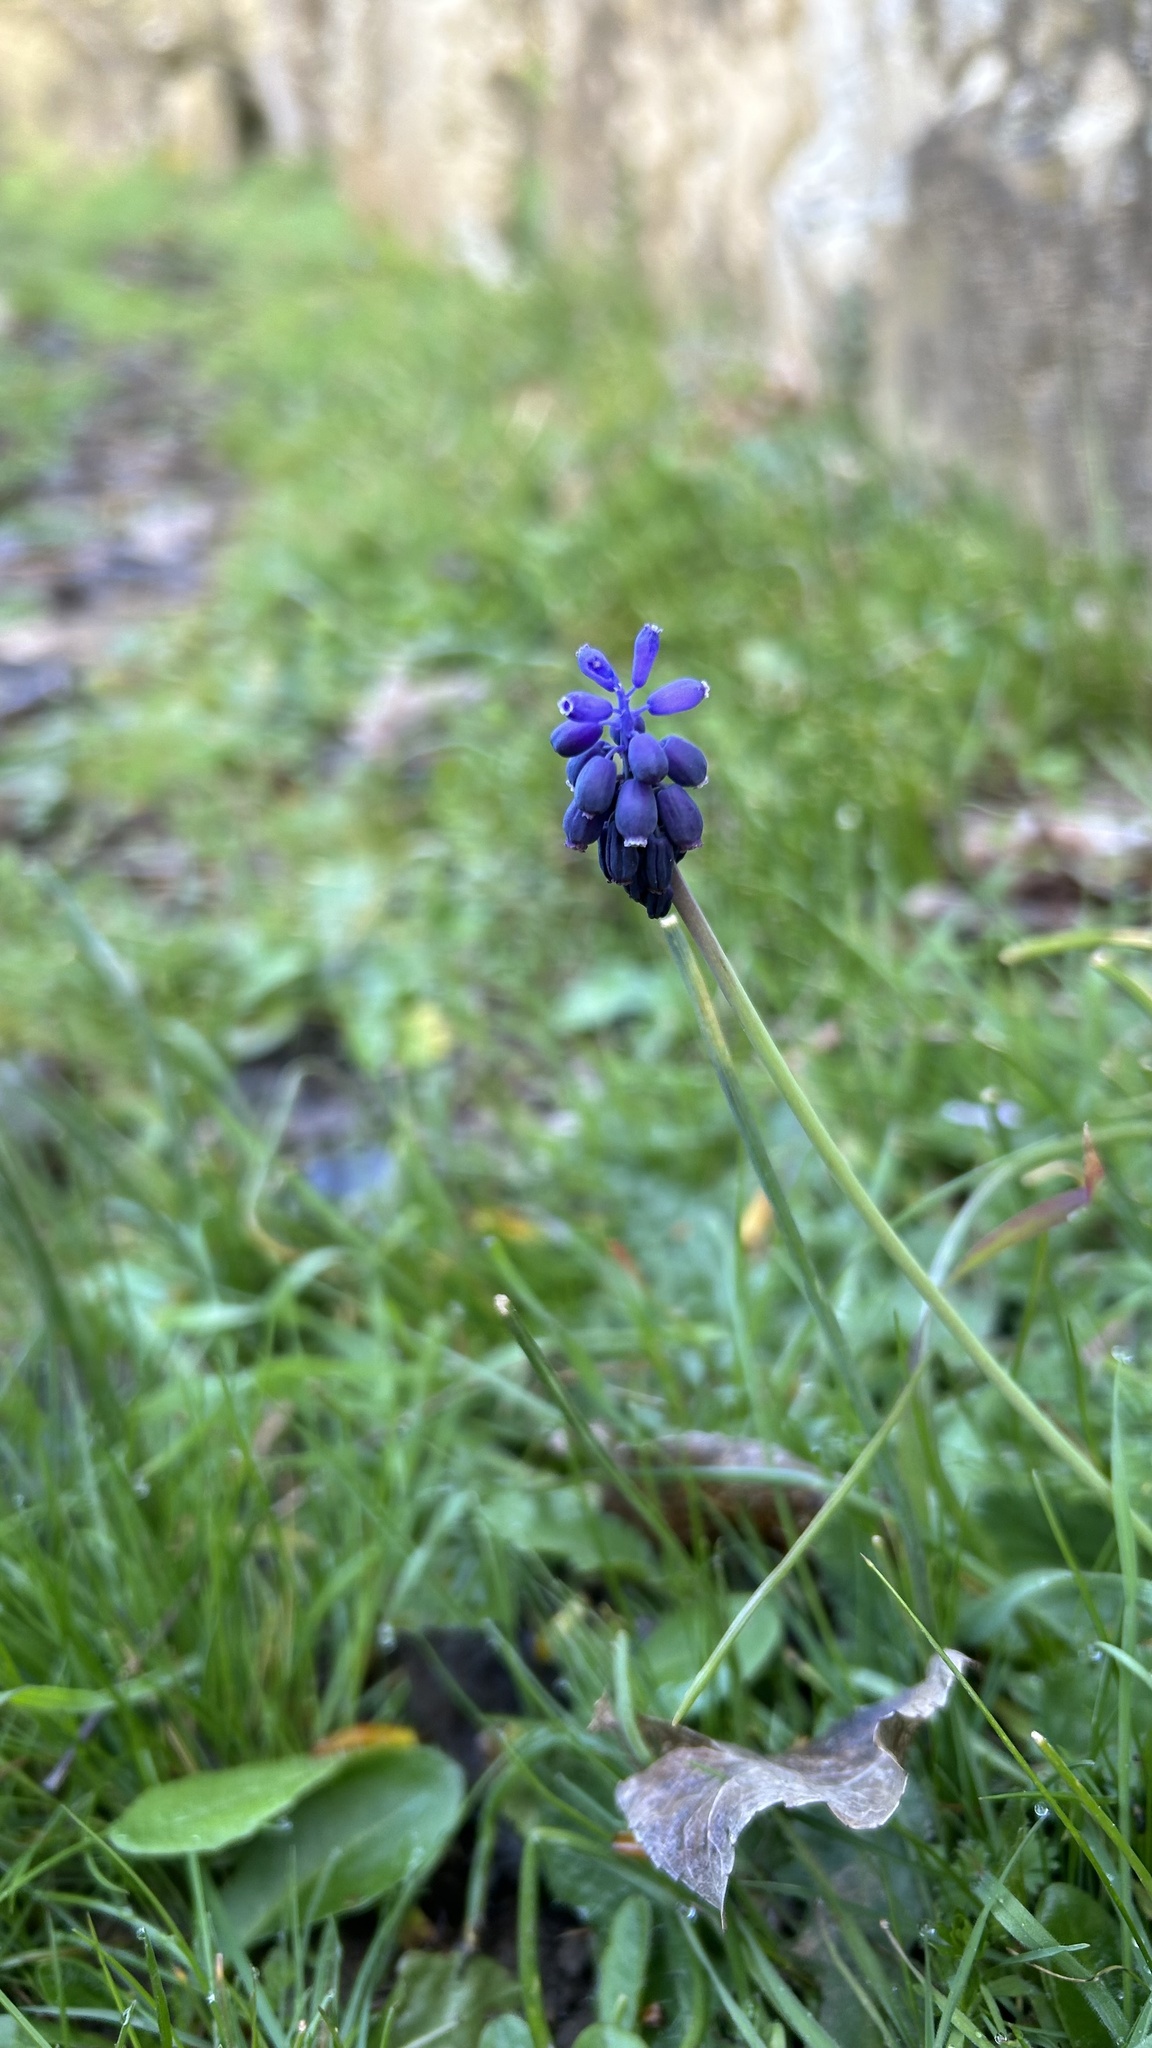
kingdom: Plantae
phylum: Tracheophyta
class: Liliopsida
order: Asparagales
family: Asparagaceae
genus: Muscari
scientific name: Muscari neglectum
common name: Grape-hyacinth
